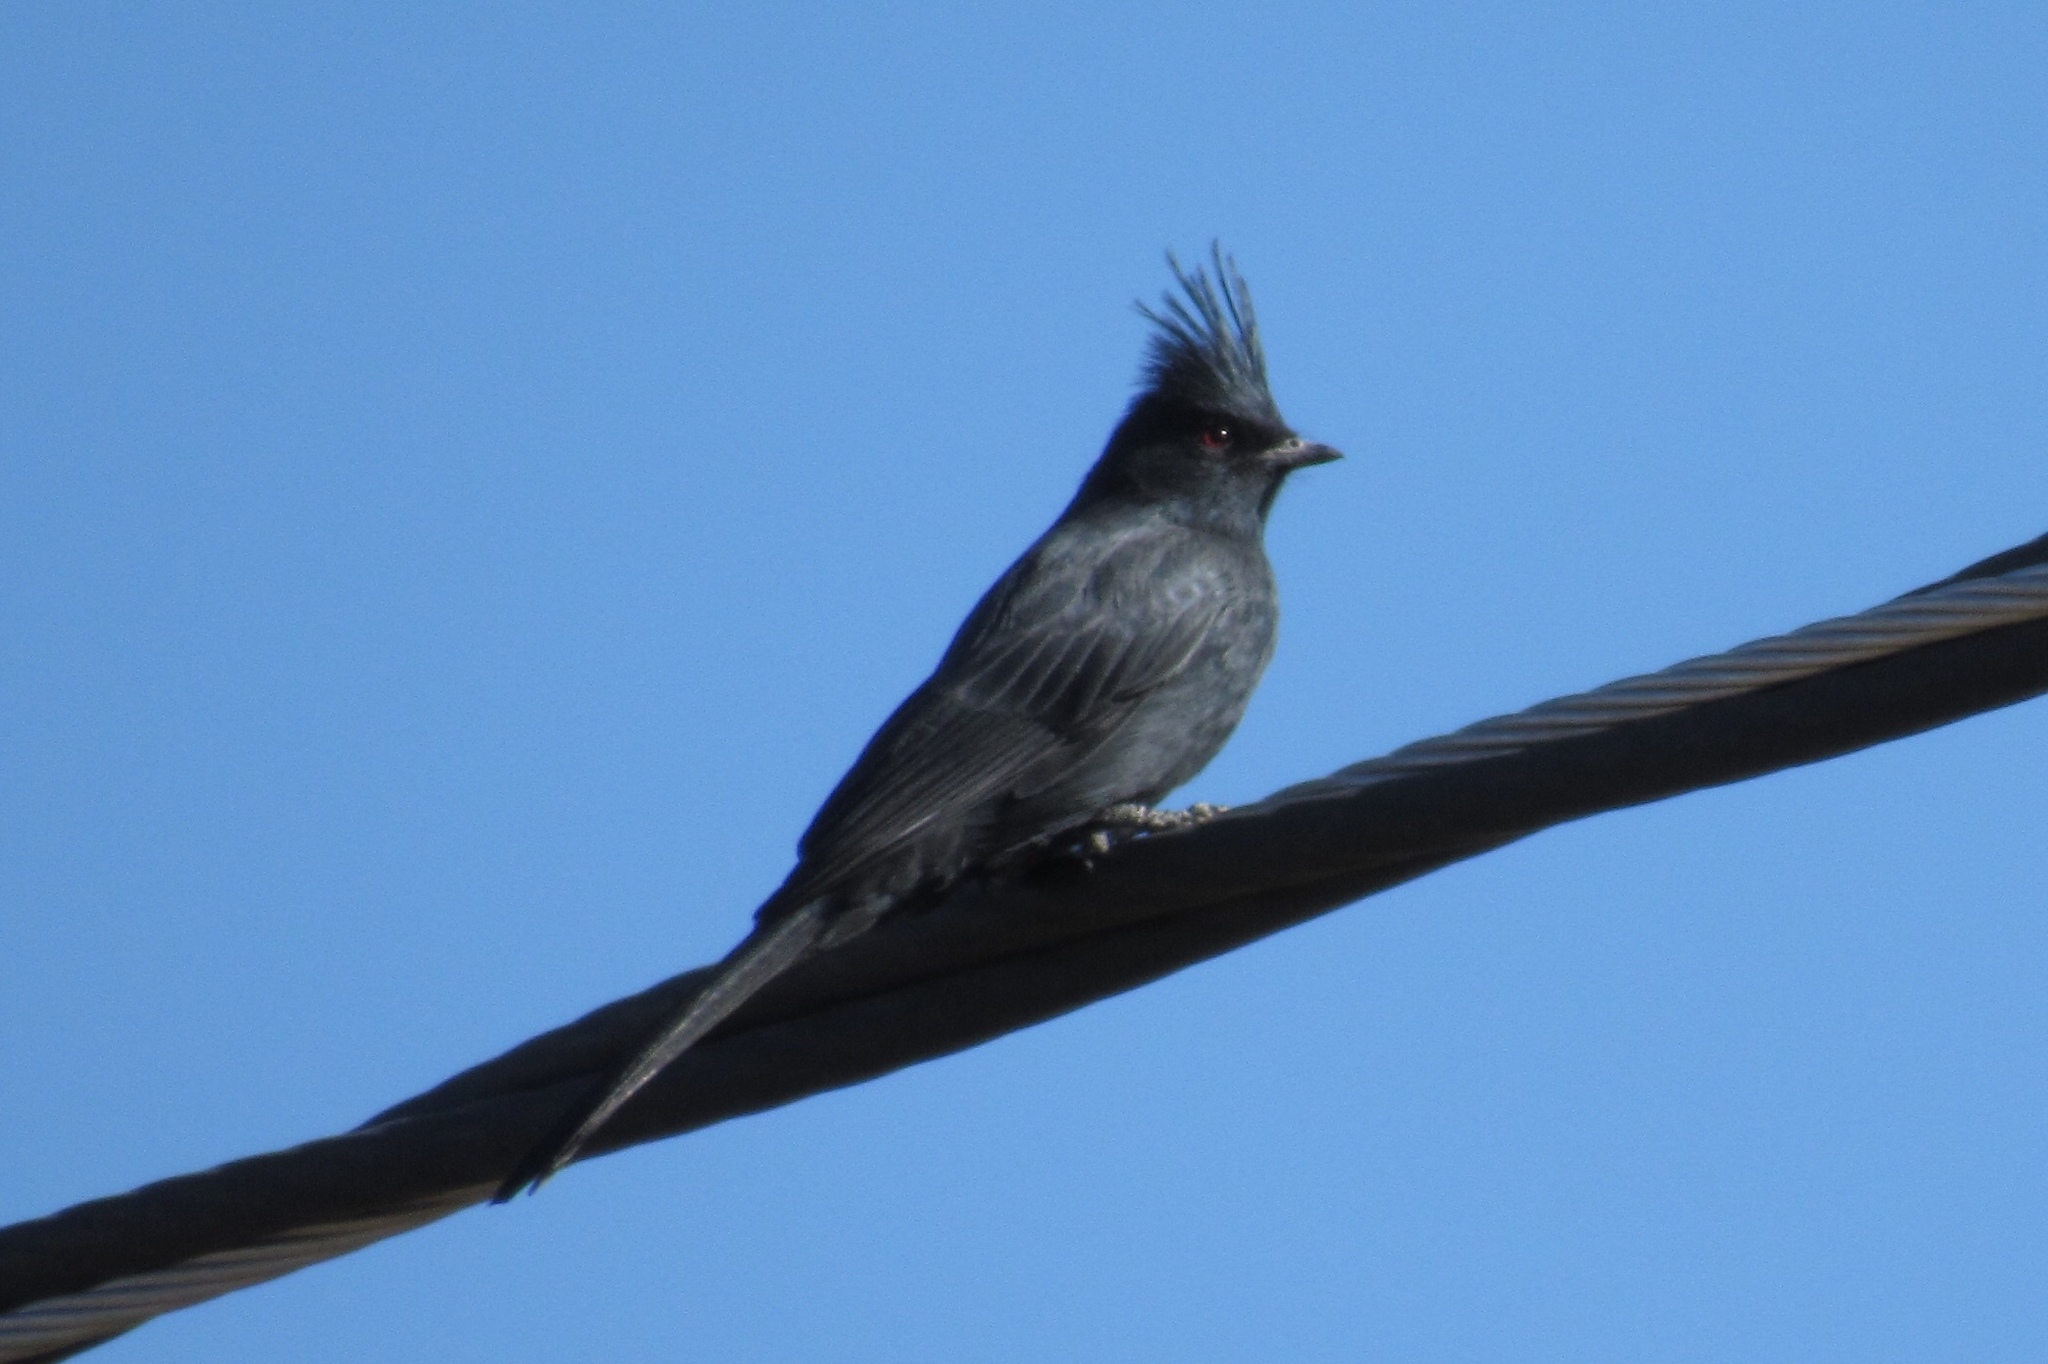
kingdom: Animalia
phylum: Chordata
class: Aves
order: Passeriformes
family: Ptilogonatidae
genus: Phainopepla
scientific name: Phainopepla nitens
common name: Phainopepla
